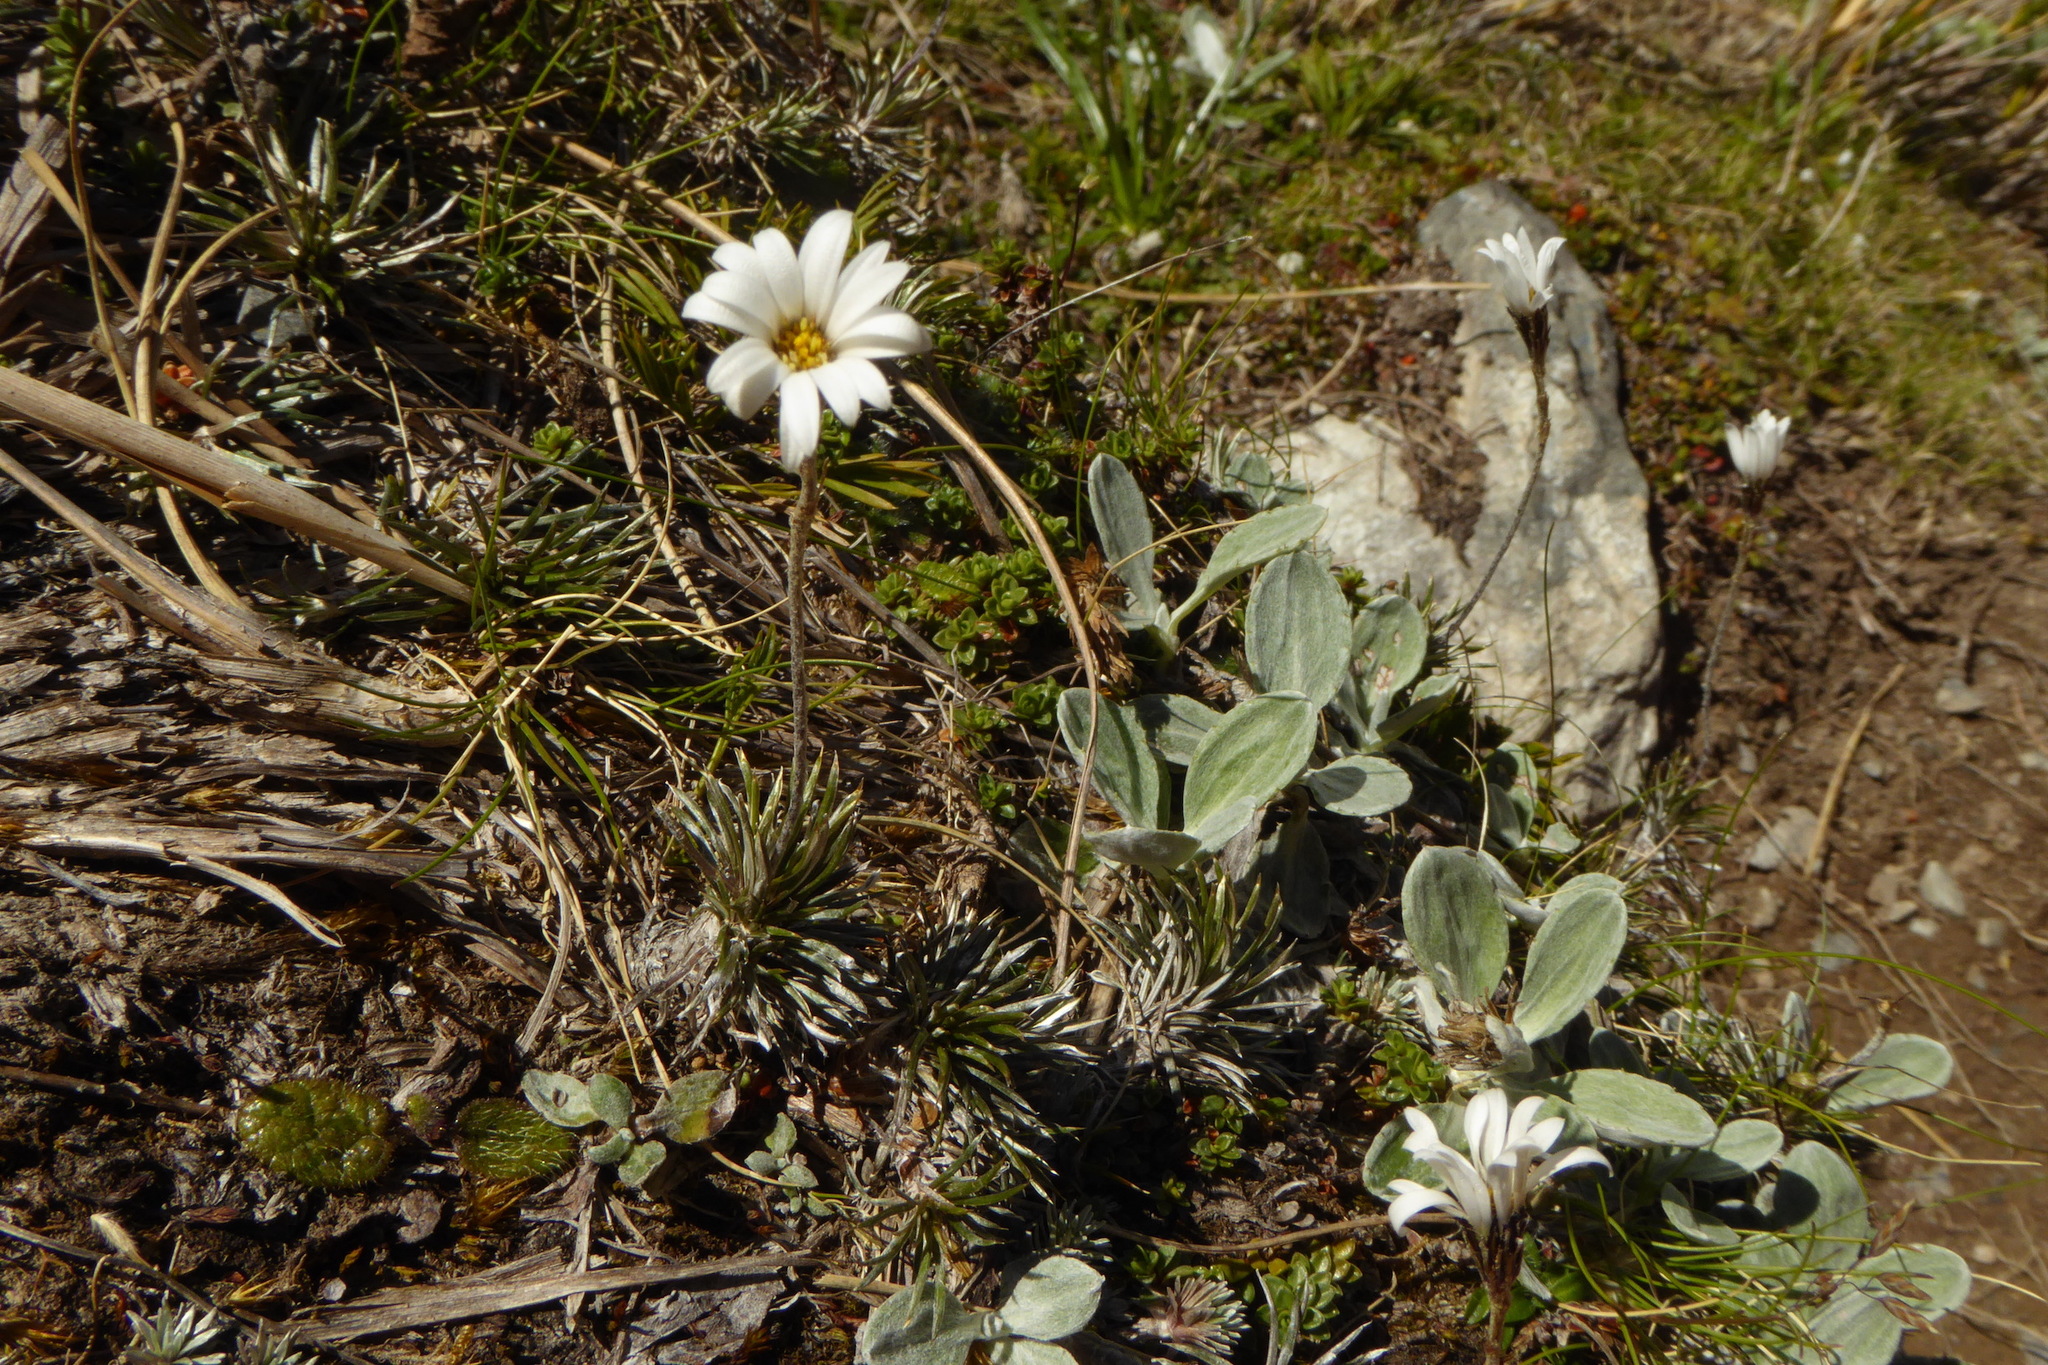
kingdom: Plantae
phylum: Tracheophyta
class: Magnoliopsida
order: Asterales
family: Asteraceae
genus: Celmisia
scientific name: Celmisia laricifolia
